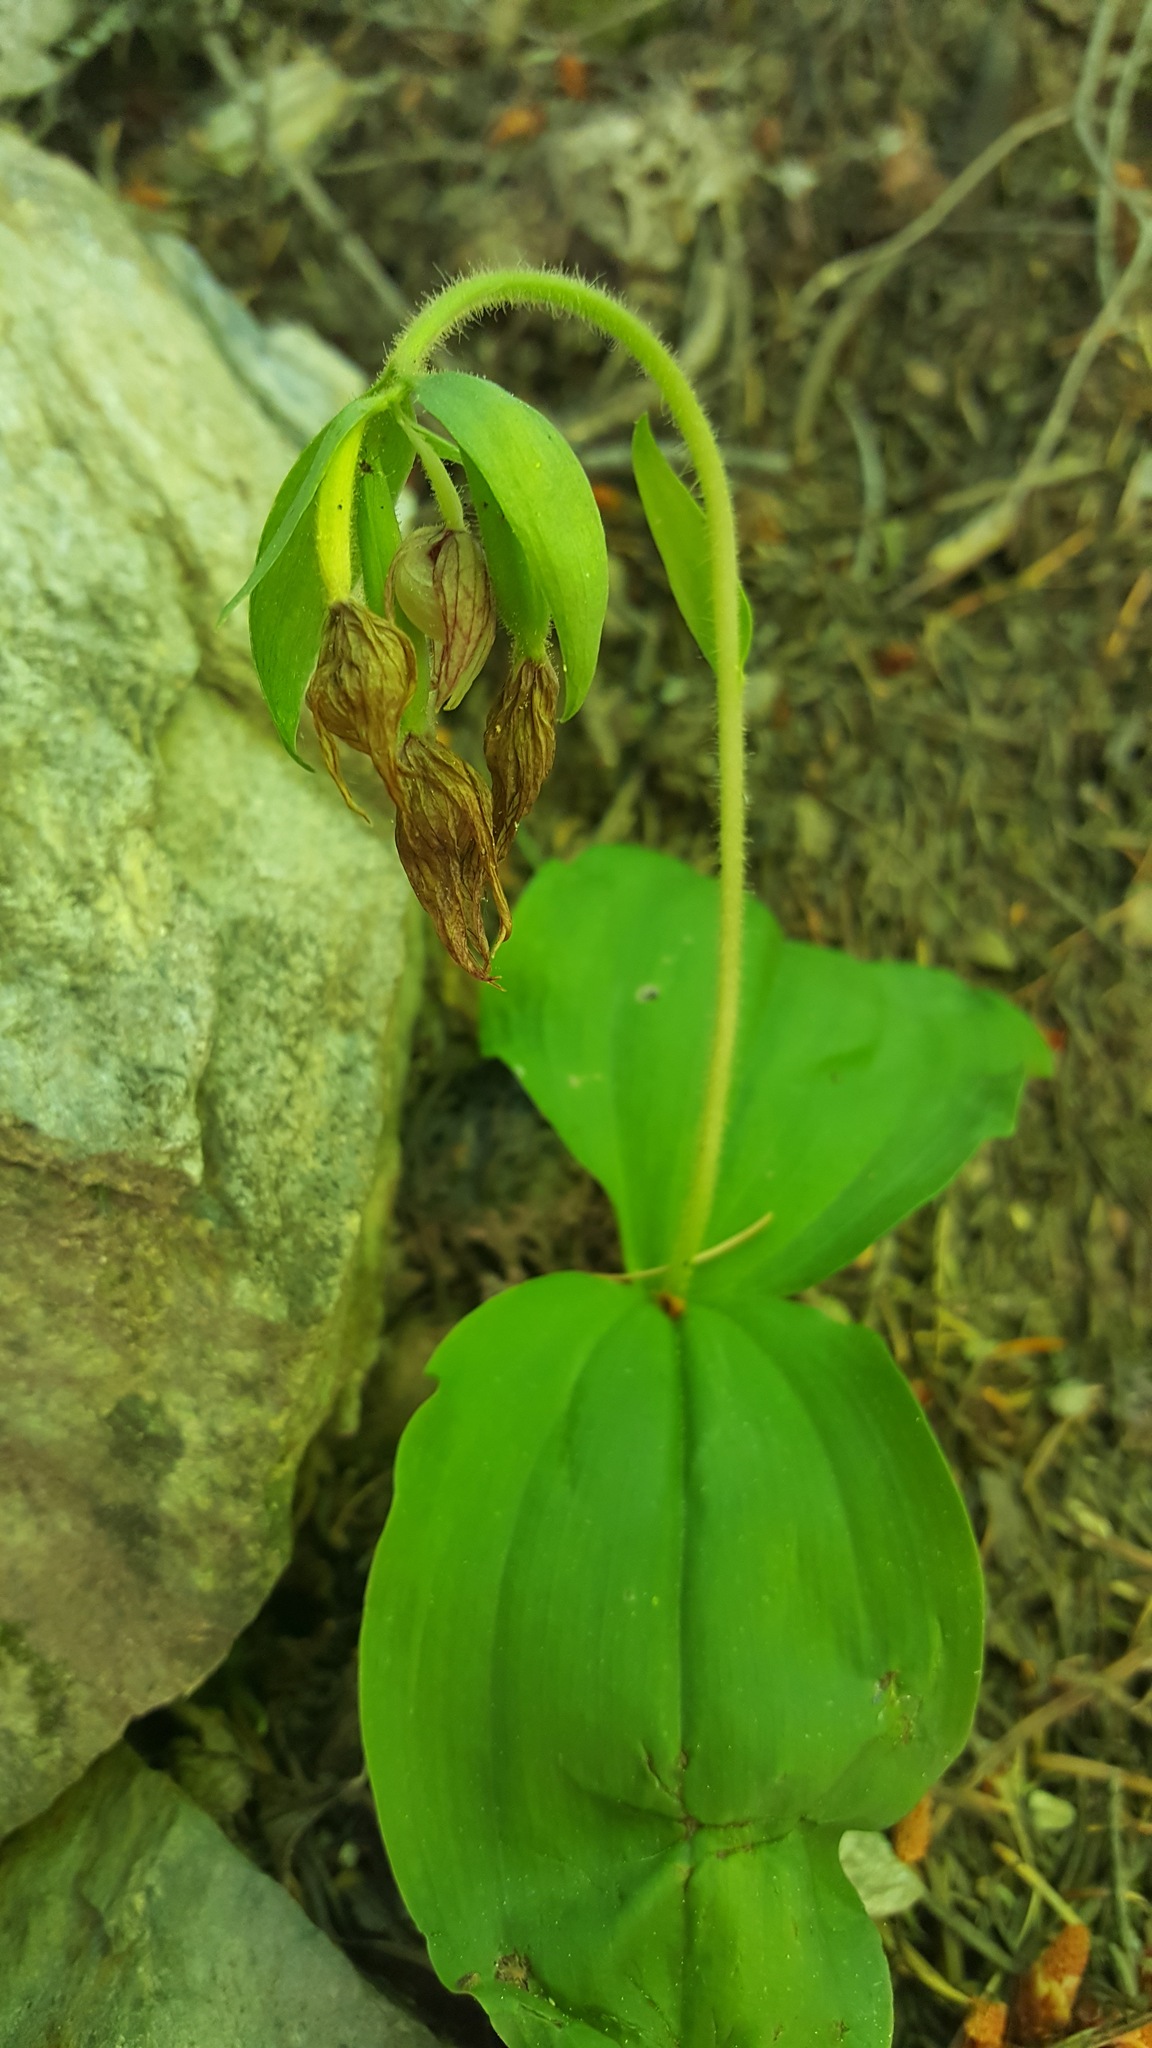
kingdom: Plantae
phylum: Tracheophyta
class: Liliopsida
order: Asparagales
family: Orchidaceae
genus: Cypripedium
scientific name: Cypripedium fasciculatum
